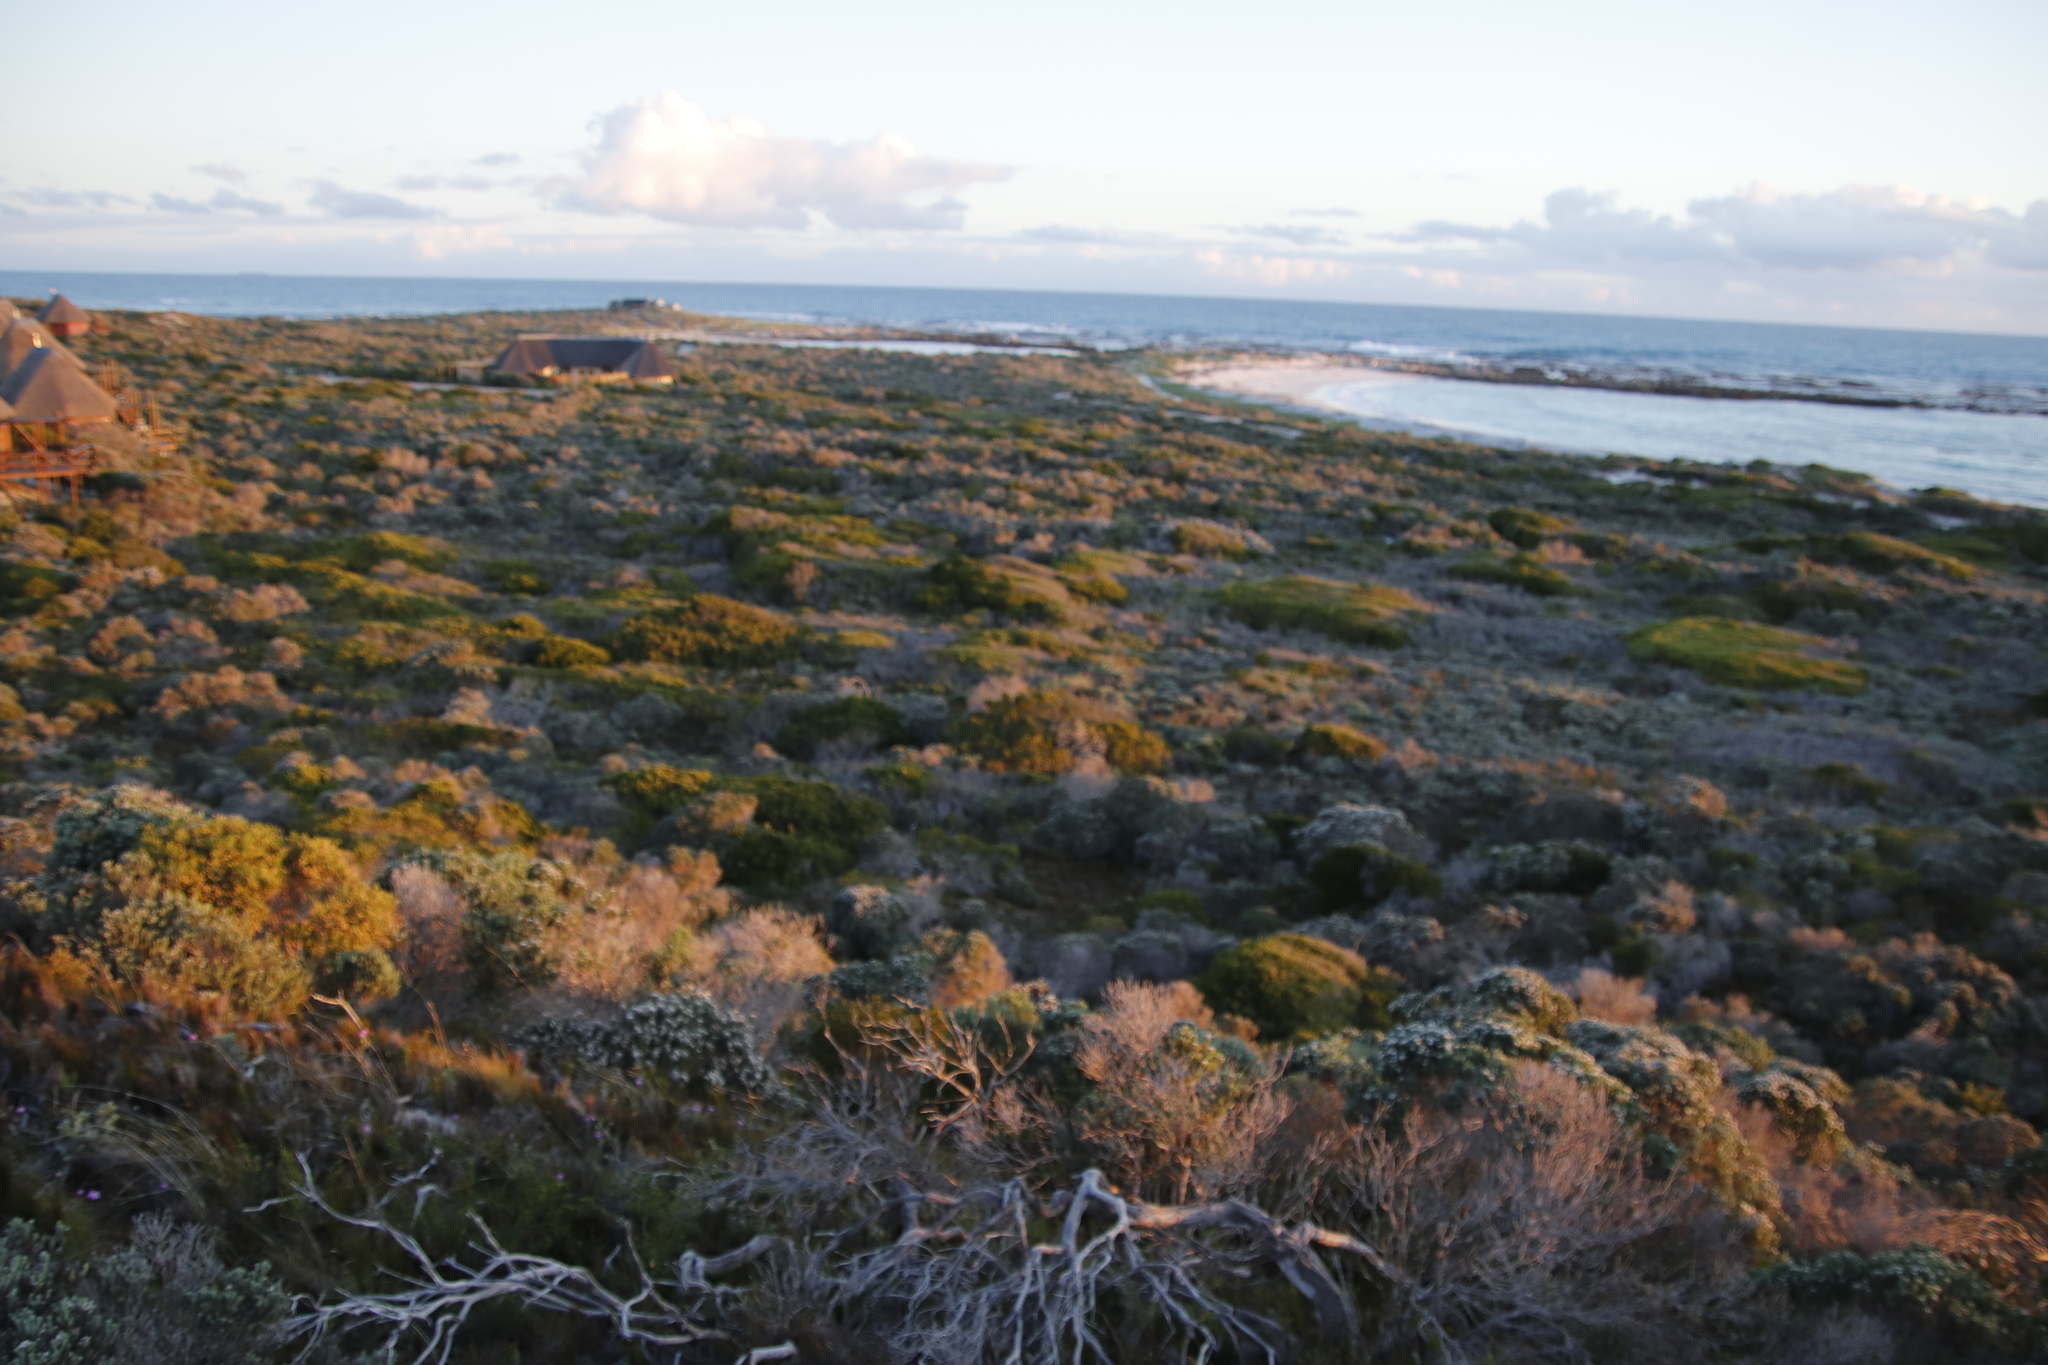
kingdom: Plantae
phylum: Tracheophyta
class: Magnoliopsida
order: Fabales
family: Fabaceae
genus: Acacia
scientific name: Acacia cyclops
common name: Coastal wattle
